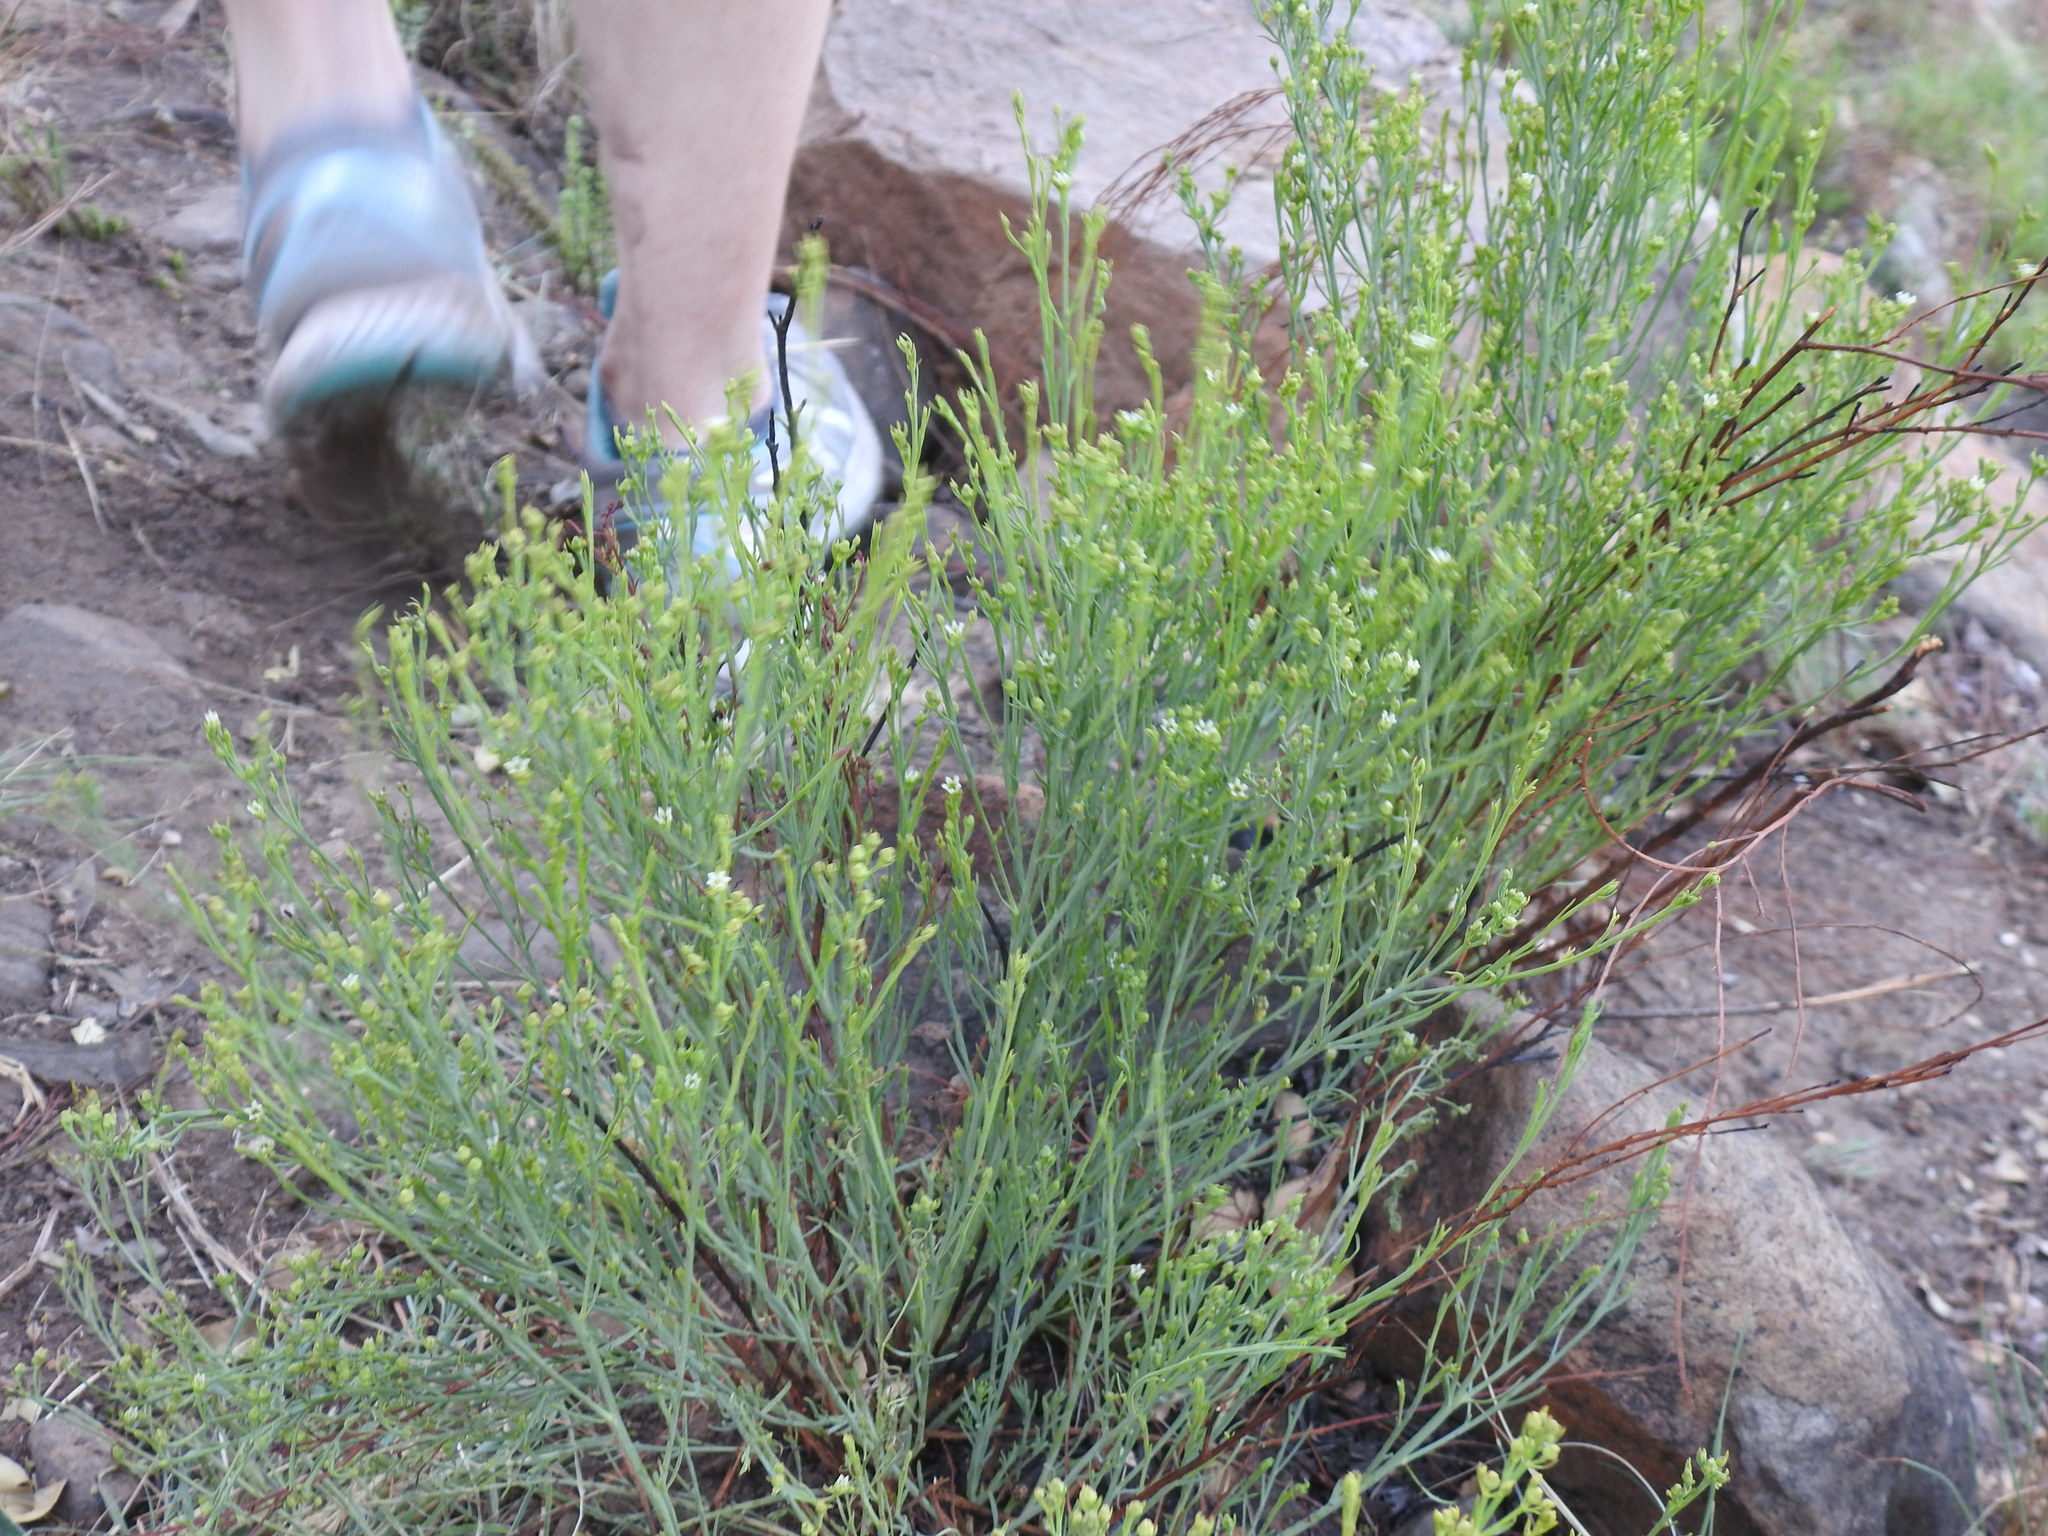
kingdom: Plantae
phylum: Tracheophyta
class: Magnoliopsida
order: Santalales
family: Thesiaceae
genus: Thesium
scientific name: Thesium utile
